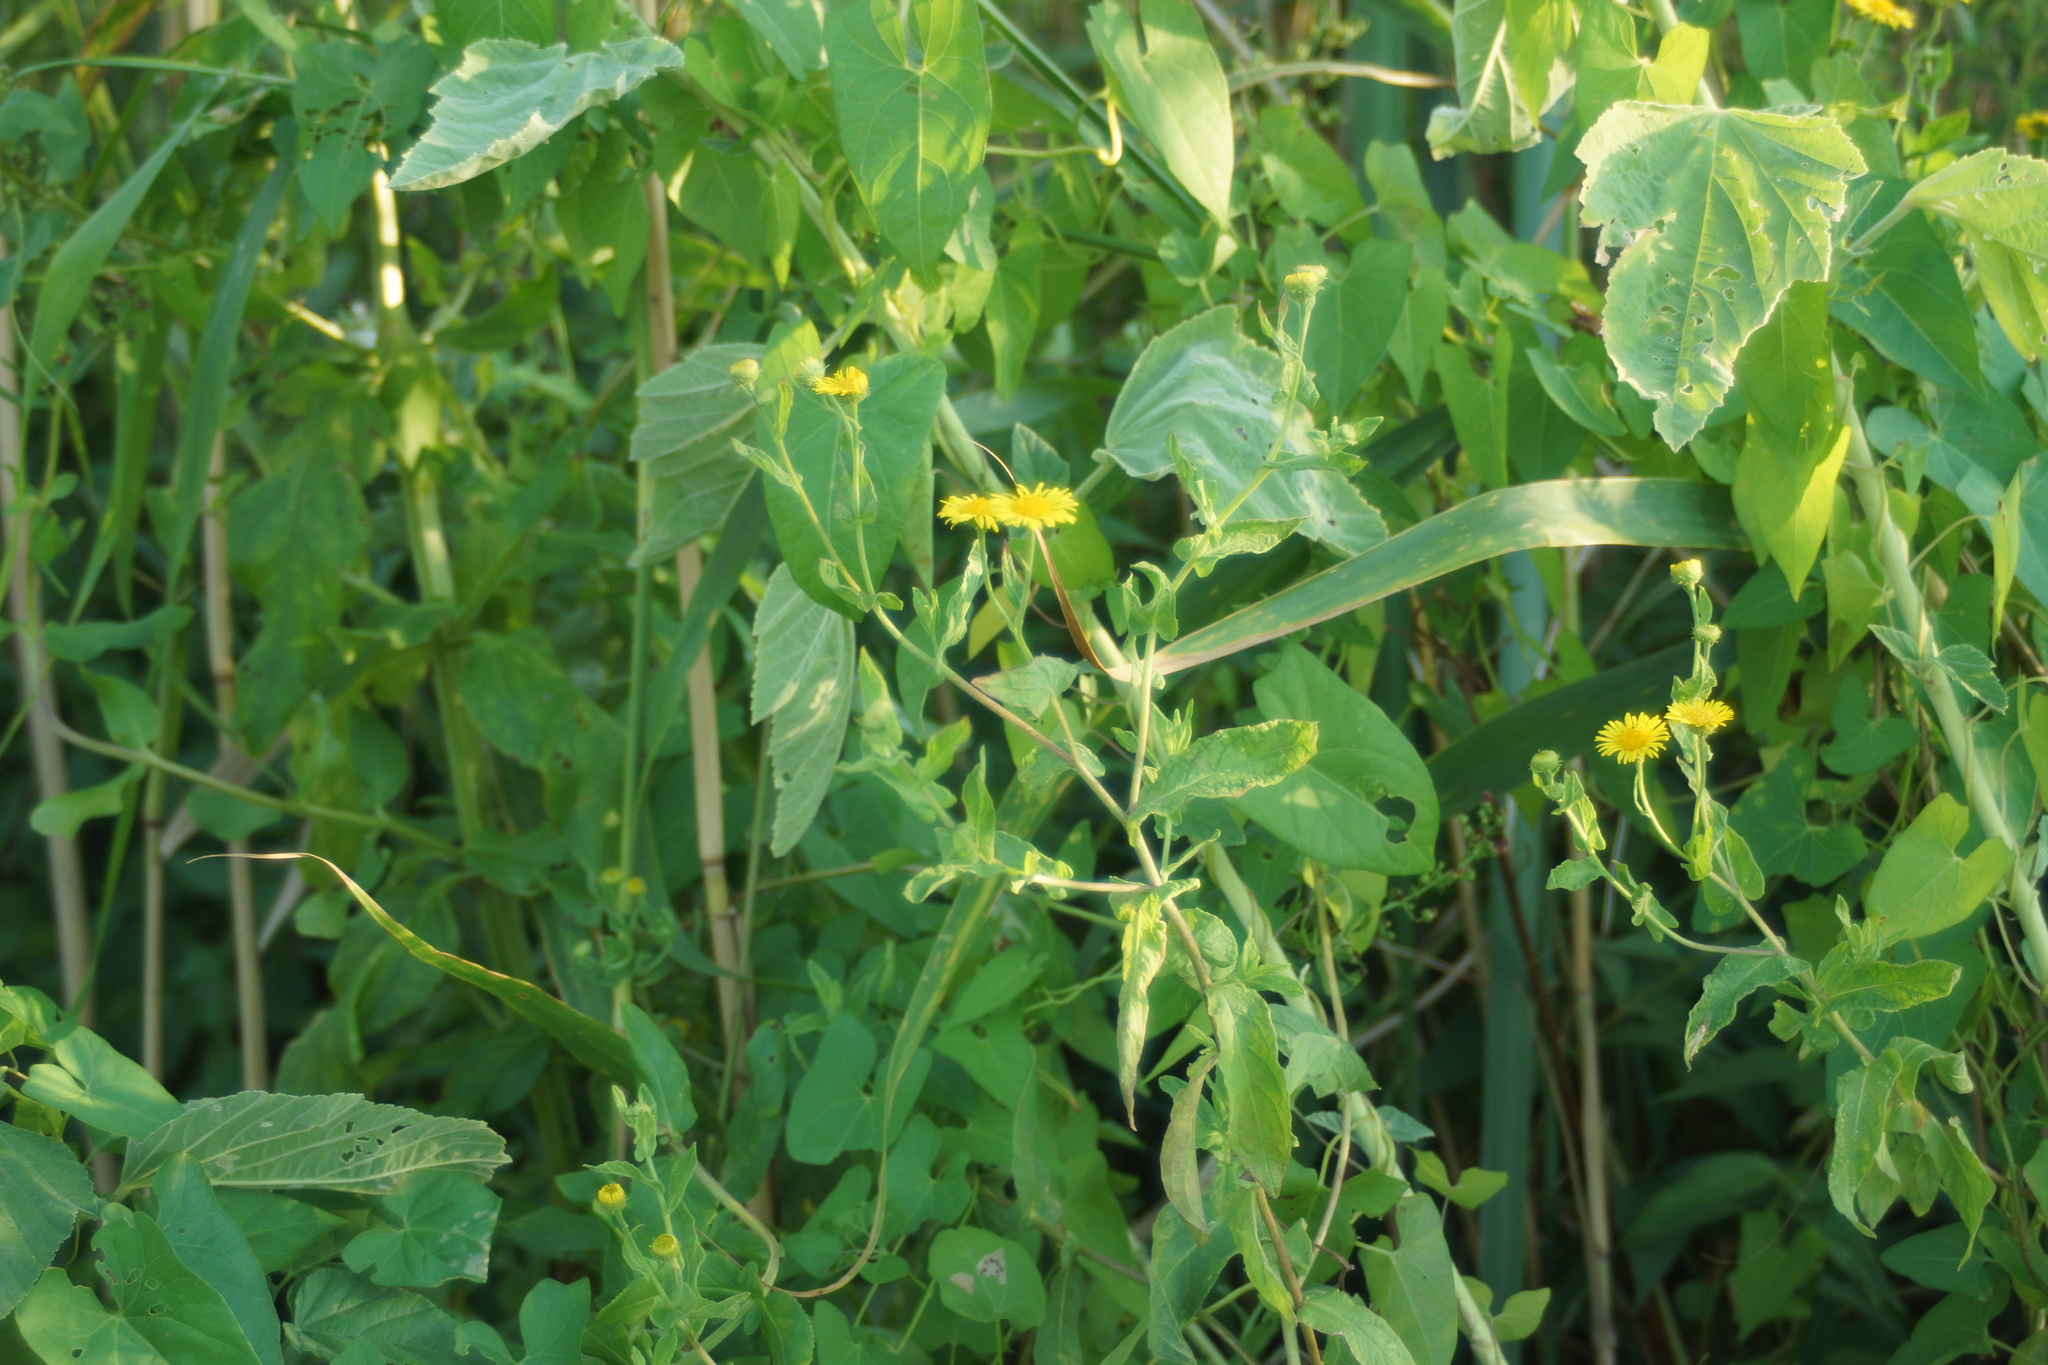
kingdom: Plantae
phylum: Tracheophyta
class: Magnoliopsida
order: Asterales
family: Asteraceae
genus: Pulicaria
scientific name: Pulicaria dysenterica
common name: Common fleabane
